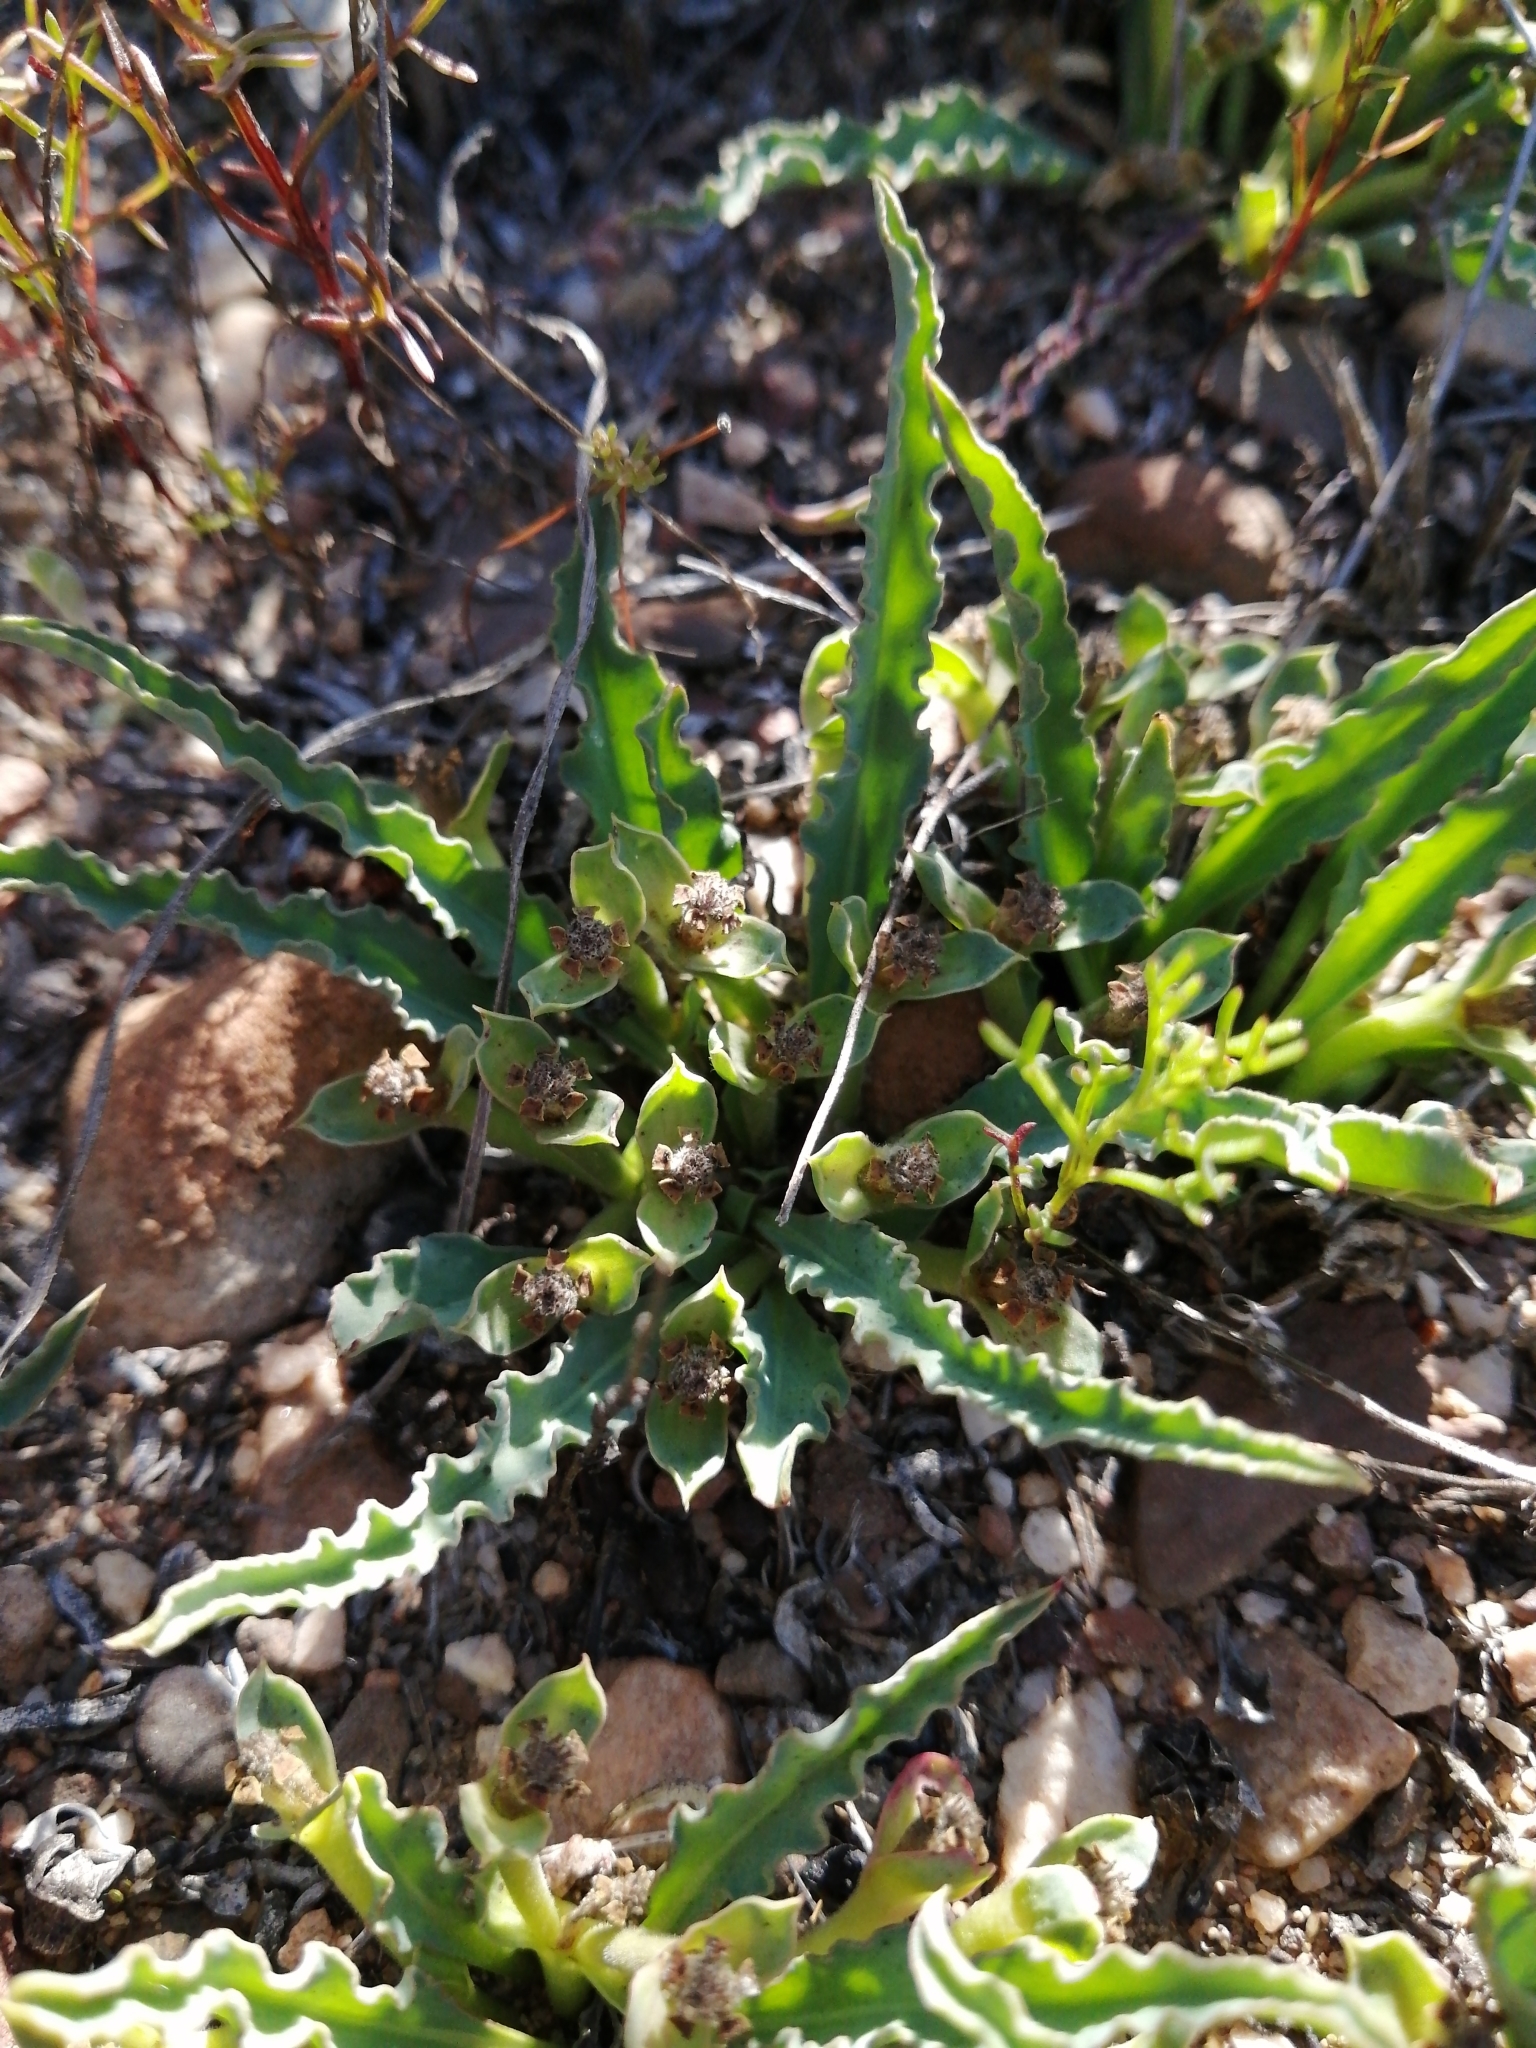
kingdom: Plantae
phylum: Tracheophyta
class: Magnoliopsida
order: Malpighiales
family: Euphorbiaceae
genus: Euphorbia
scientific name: Euphorbia tuberosa
